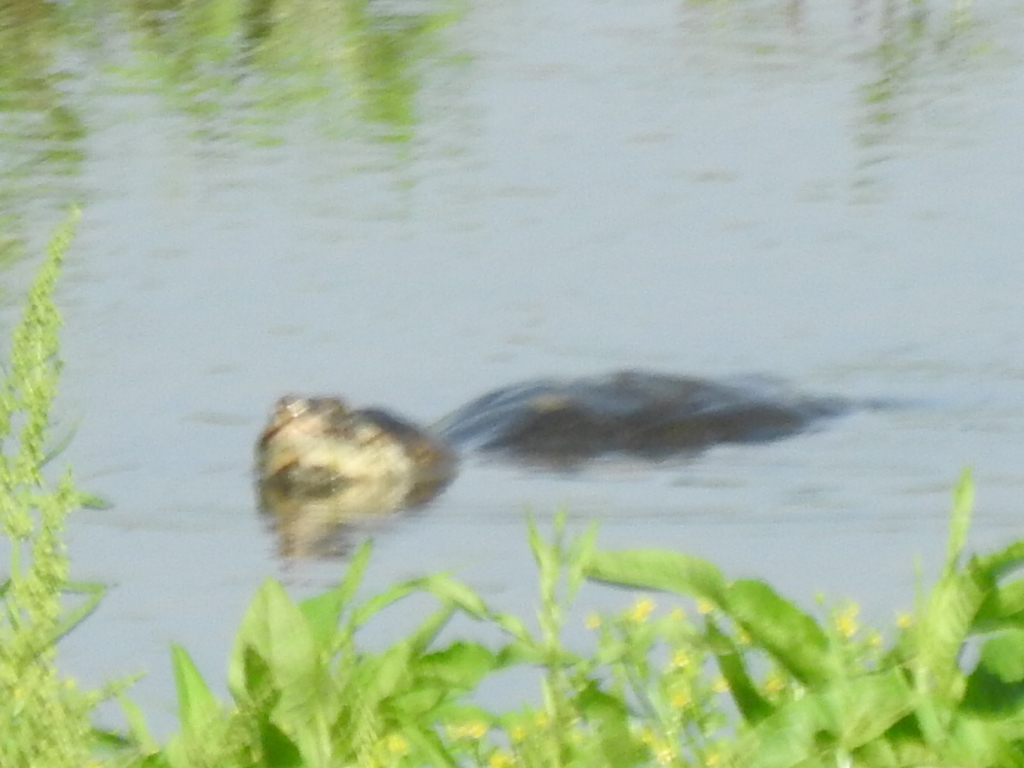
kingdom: Animalia
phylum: Chordata
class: Testudines
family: Chelydridae
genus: Chelydra
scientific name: Chelydra serpentina
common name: Common snapping turtle
